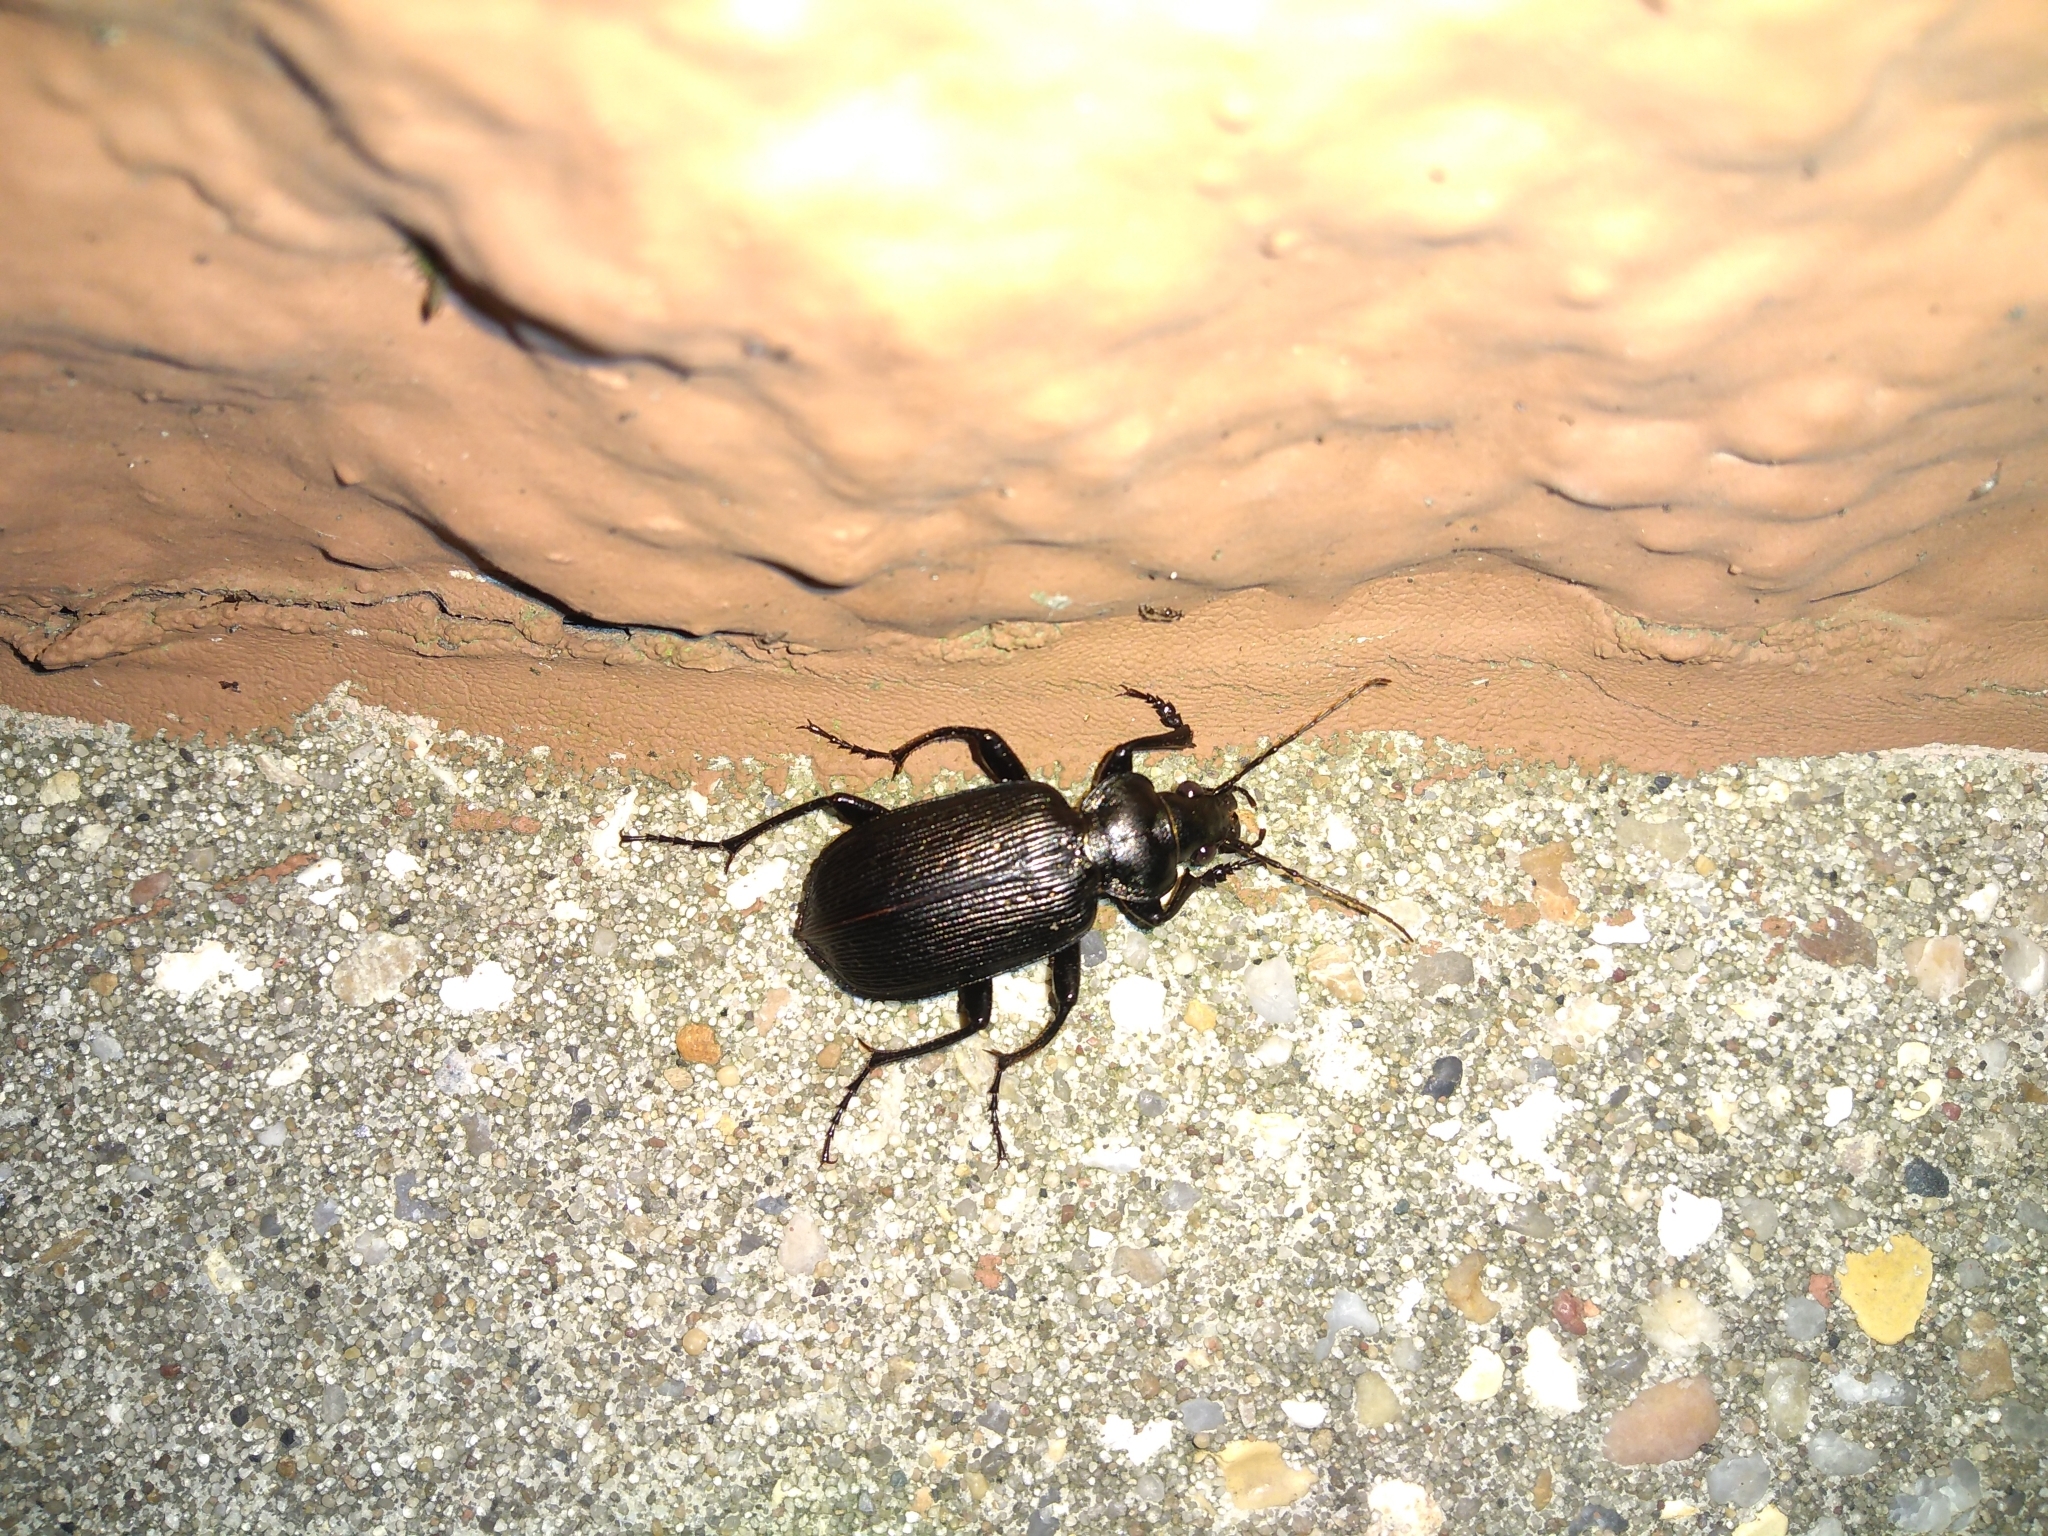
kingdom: Animalia
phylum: Arthropoda
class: Insecta
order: Coleoptera
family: Carabidae
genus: Calosoma
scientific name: Calosoma sayi
